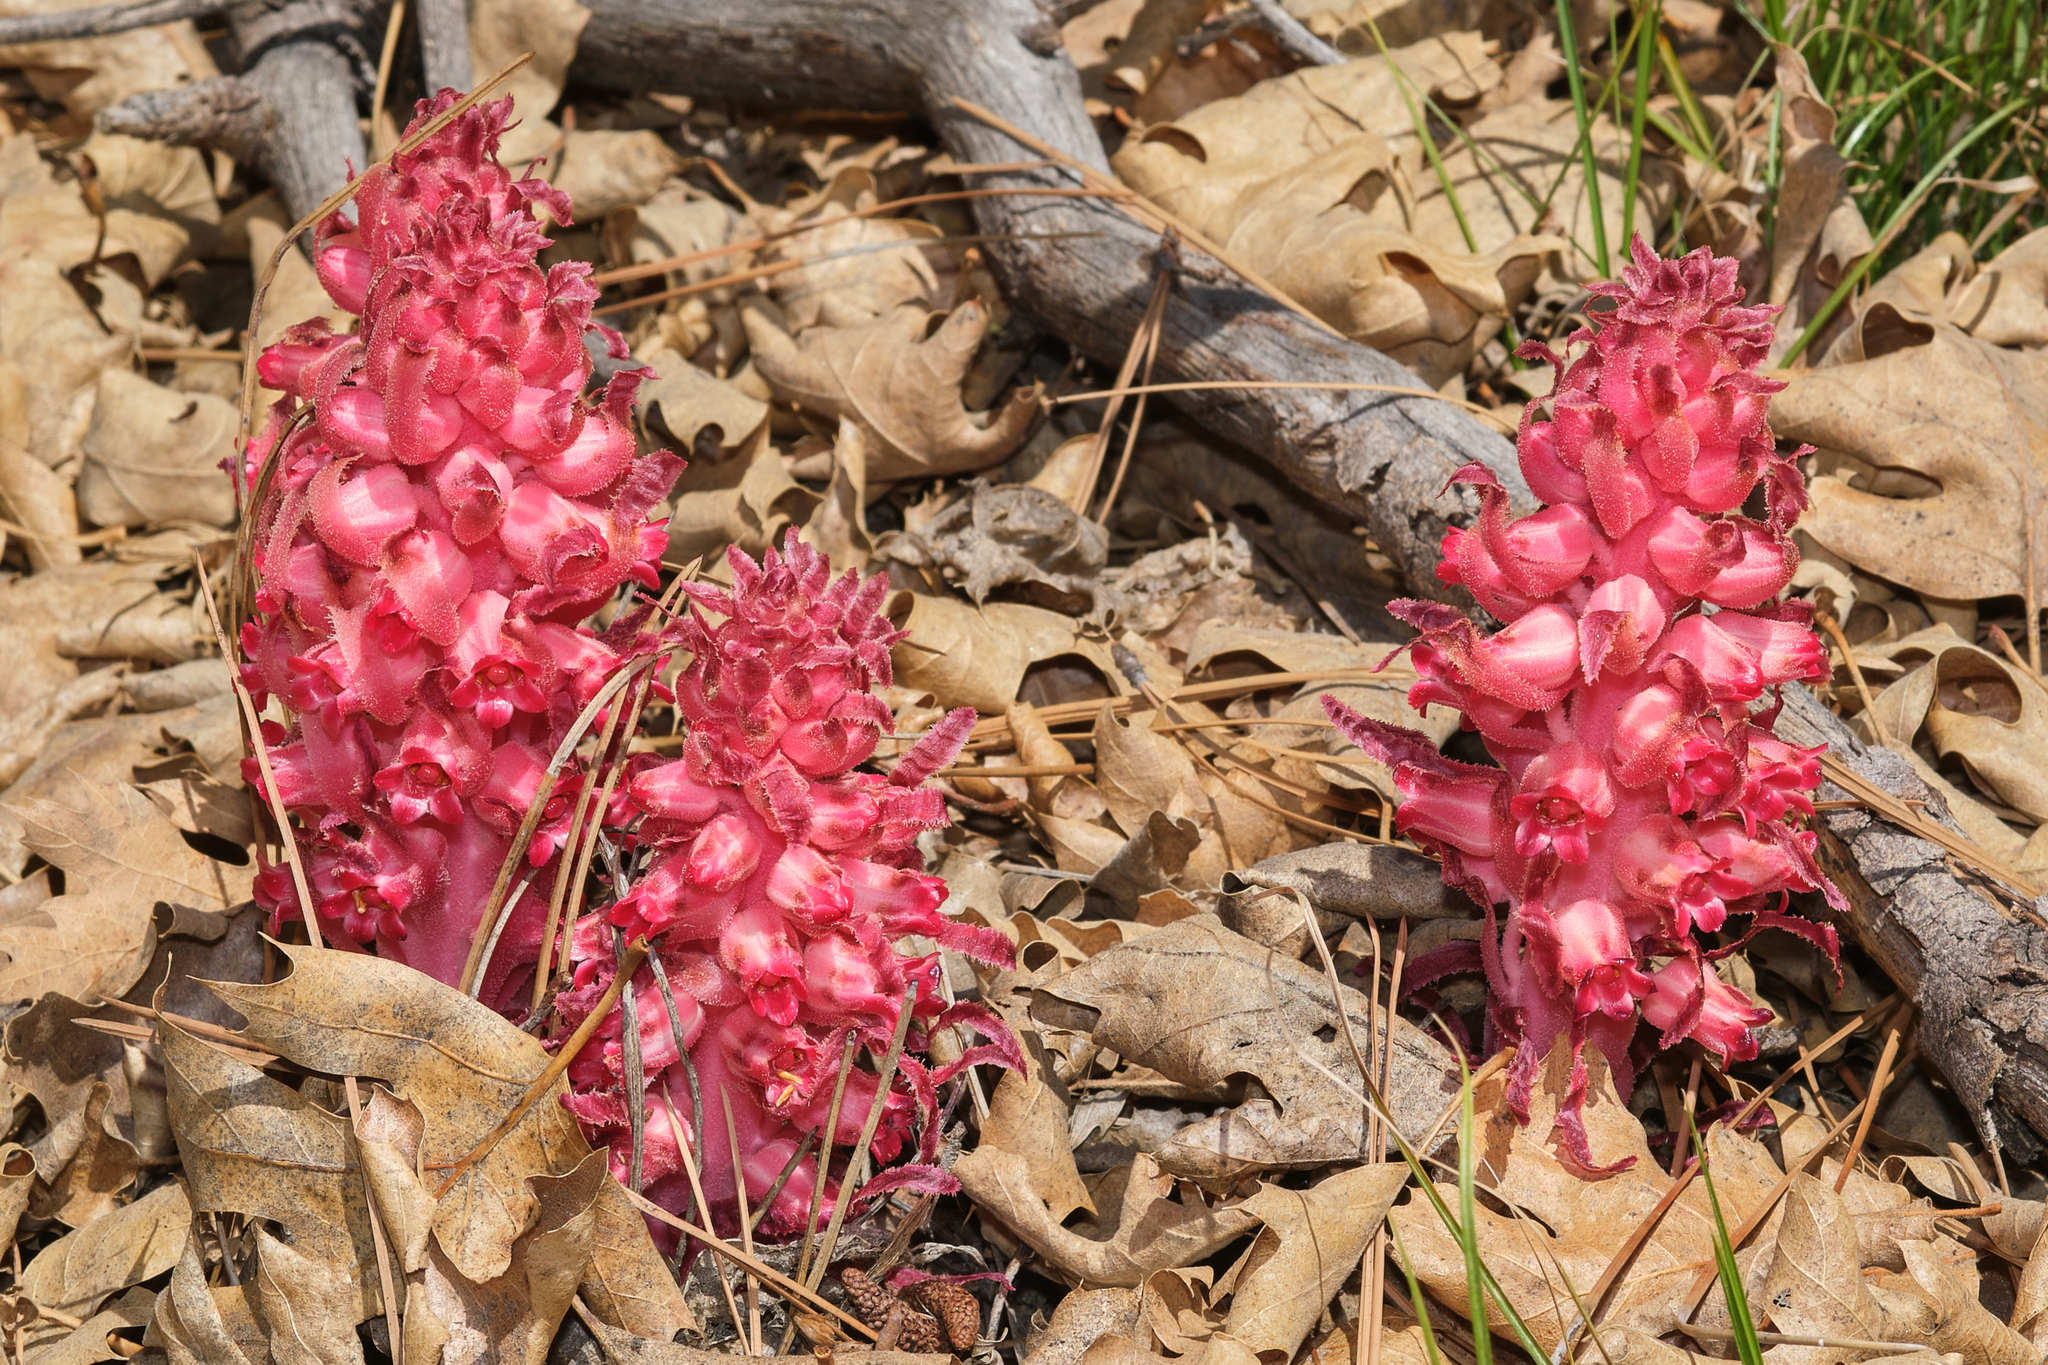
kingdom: Plantae
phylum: Tracheophyta
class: Magnoliopsida
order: Ericales
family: Ericaceae
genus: Sarcodes
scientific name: Sarcodes sanguinea
